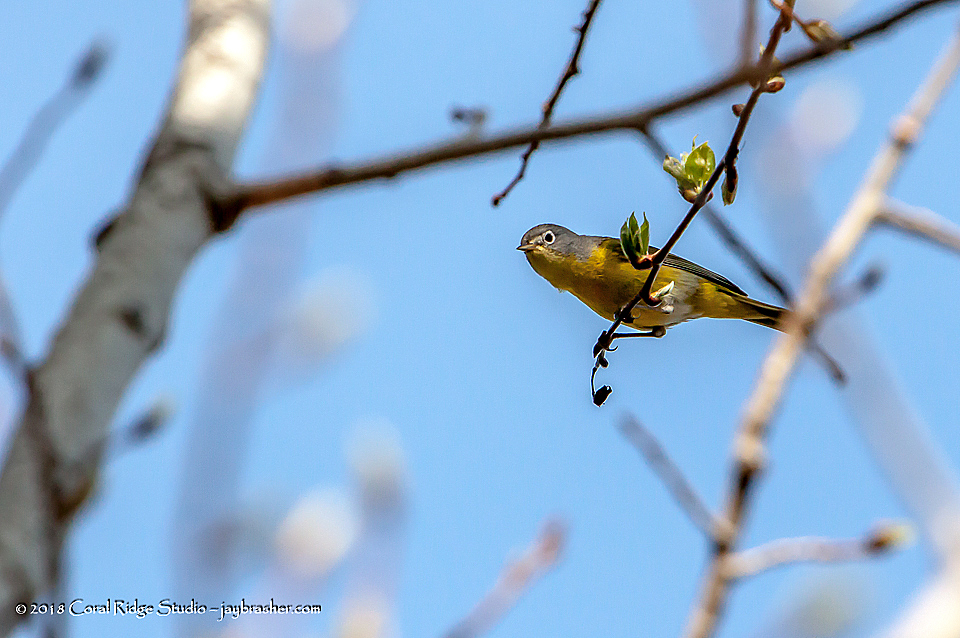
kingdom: Animalia
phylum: Chordata
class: Aves
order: Passeriformes
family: Parulidae
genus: Leiothlypis
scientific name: Leiothlypis ruficapilla
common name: Nashville warbler
